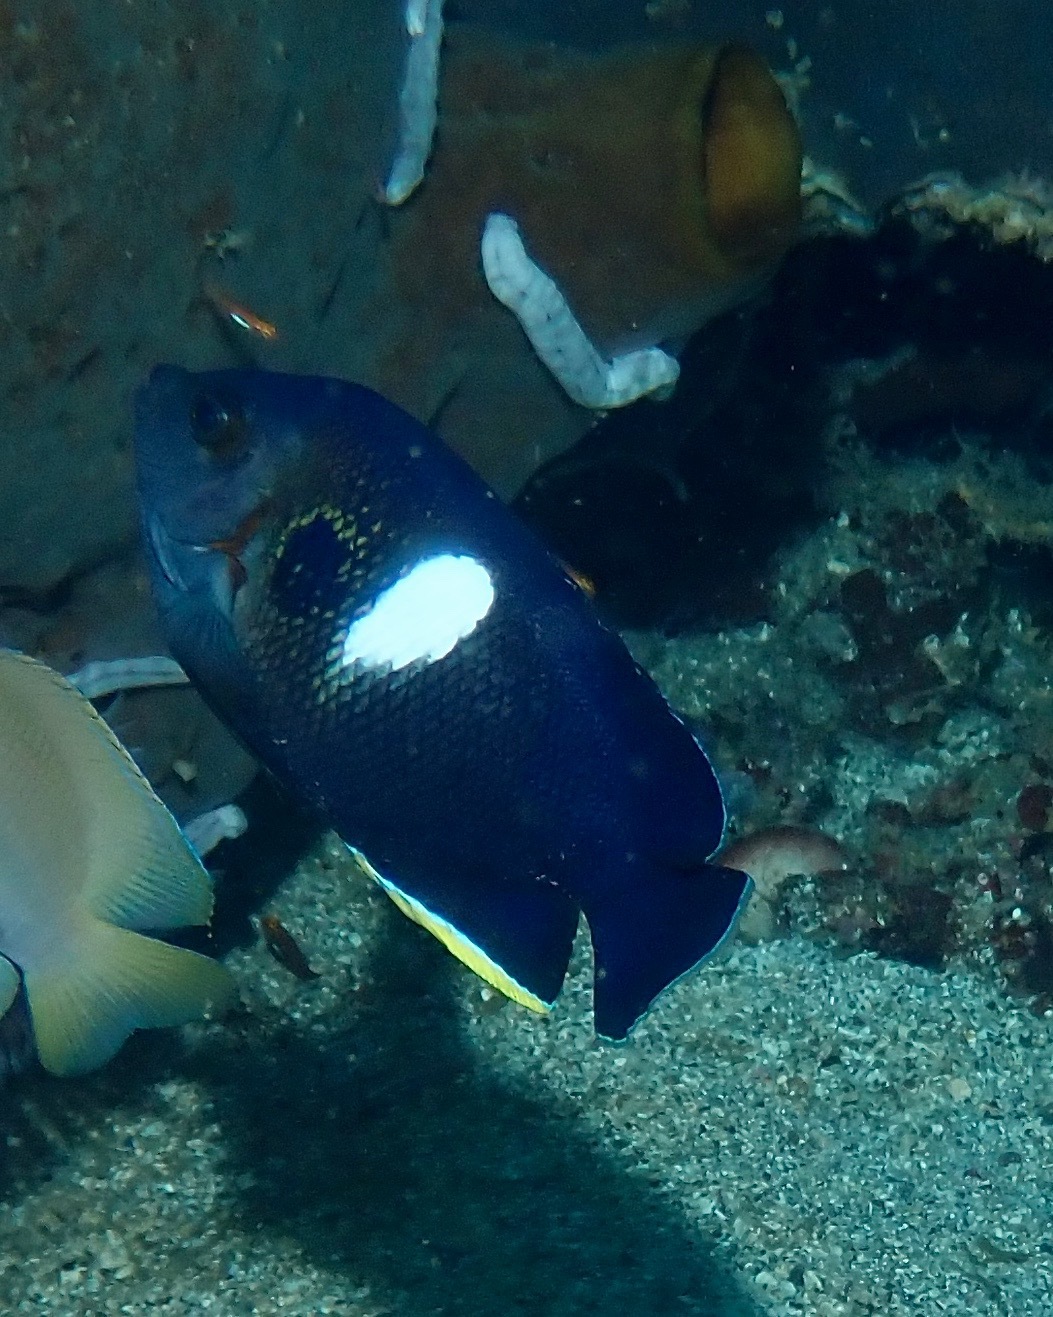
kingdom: Animalia
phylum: Chordata
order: Perciformes
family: Pomacanthidae
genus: Centropyge
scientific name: Centropyge tibicen
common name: Keyhole angelfish
